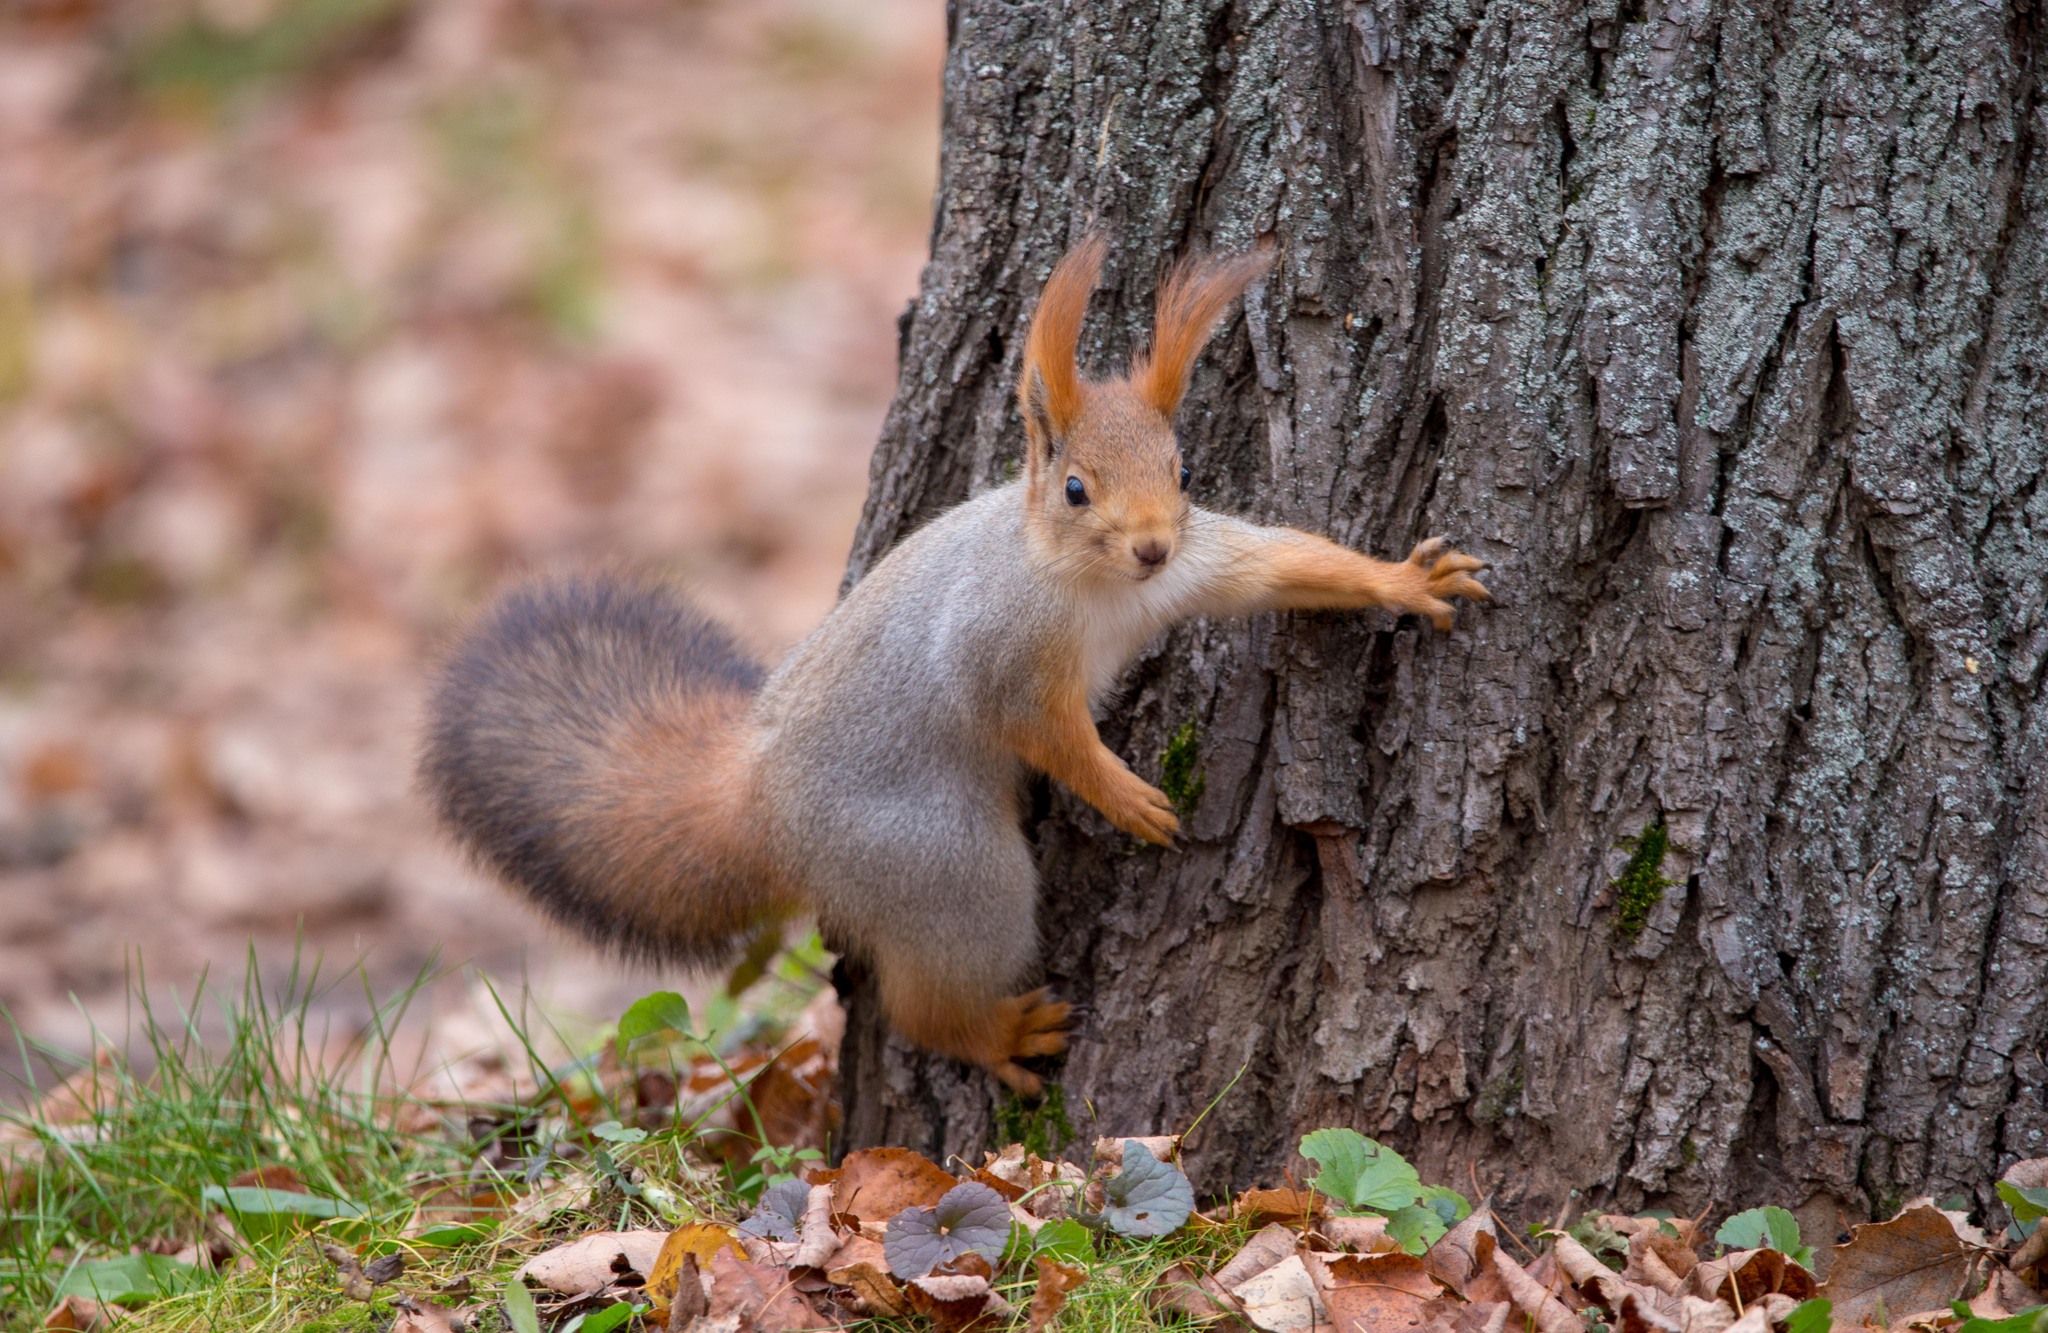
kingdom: Animalia
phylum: Chordata
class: Mammalia
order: Rodentia
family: Sciuridae
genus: Sciurus
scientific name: Sciurus vulgaris
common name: Eurasian red squirrel
